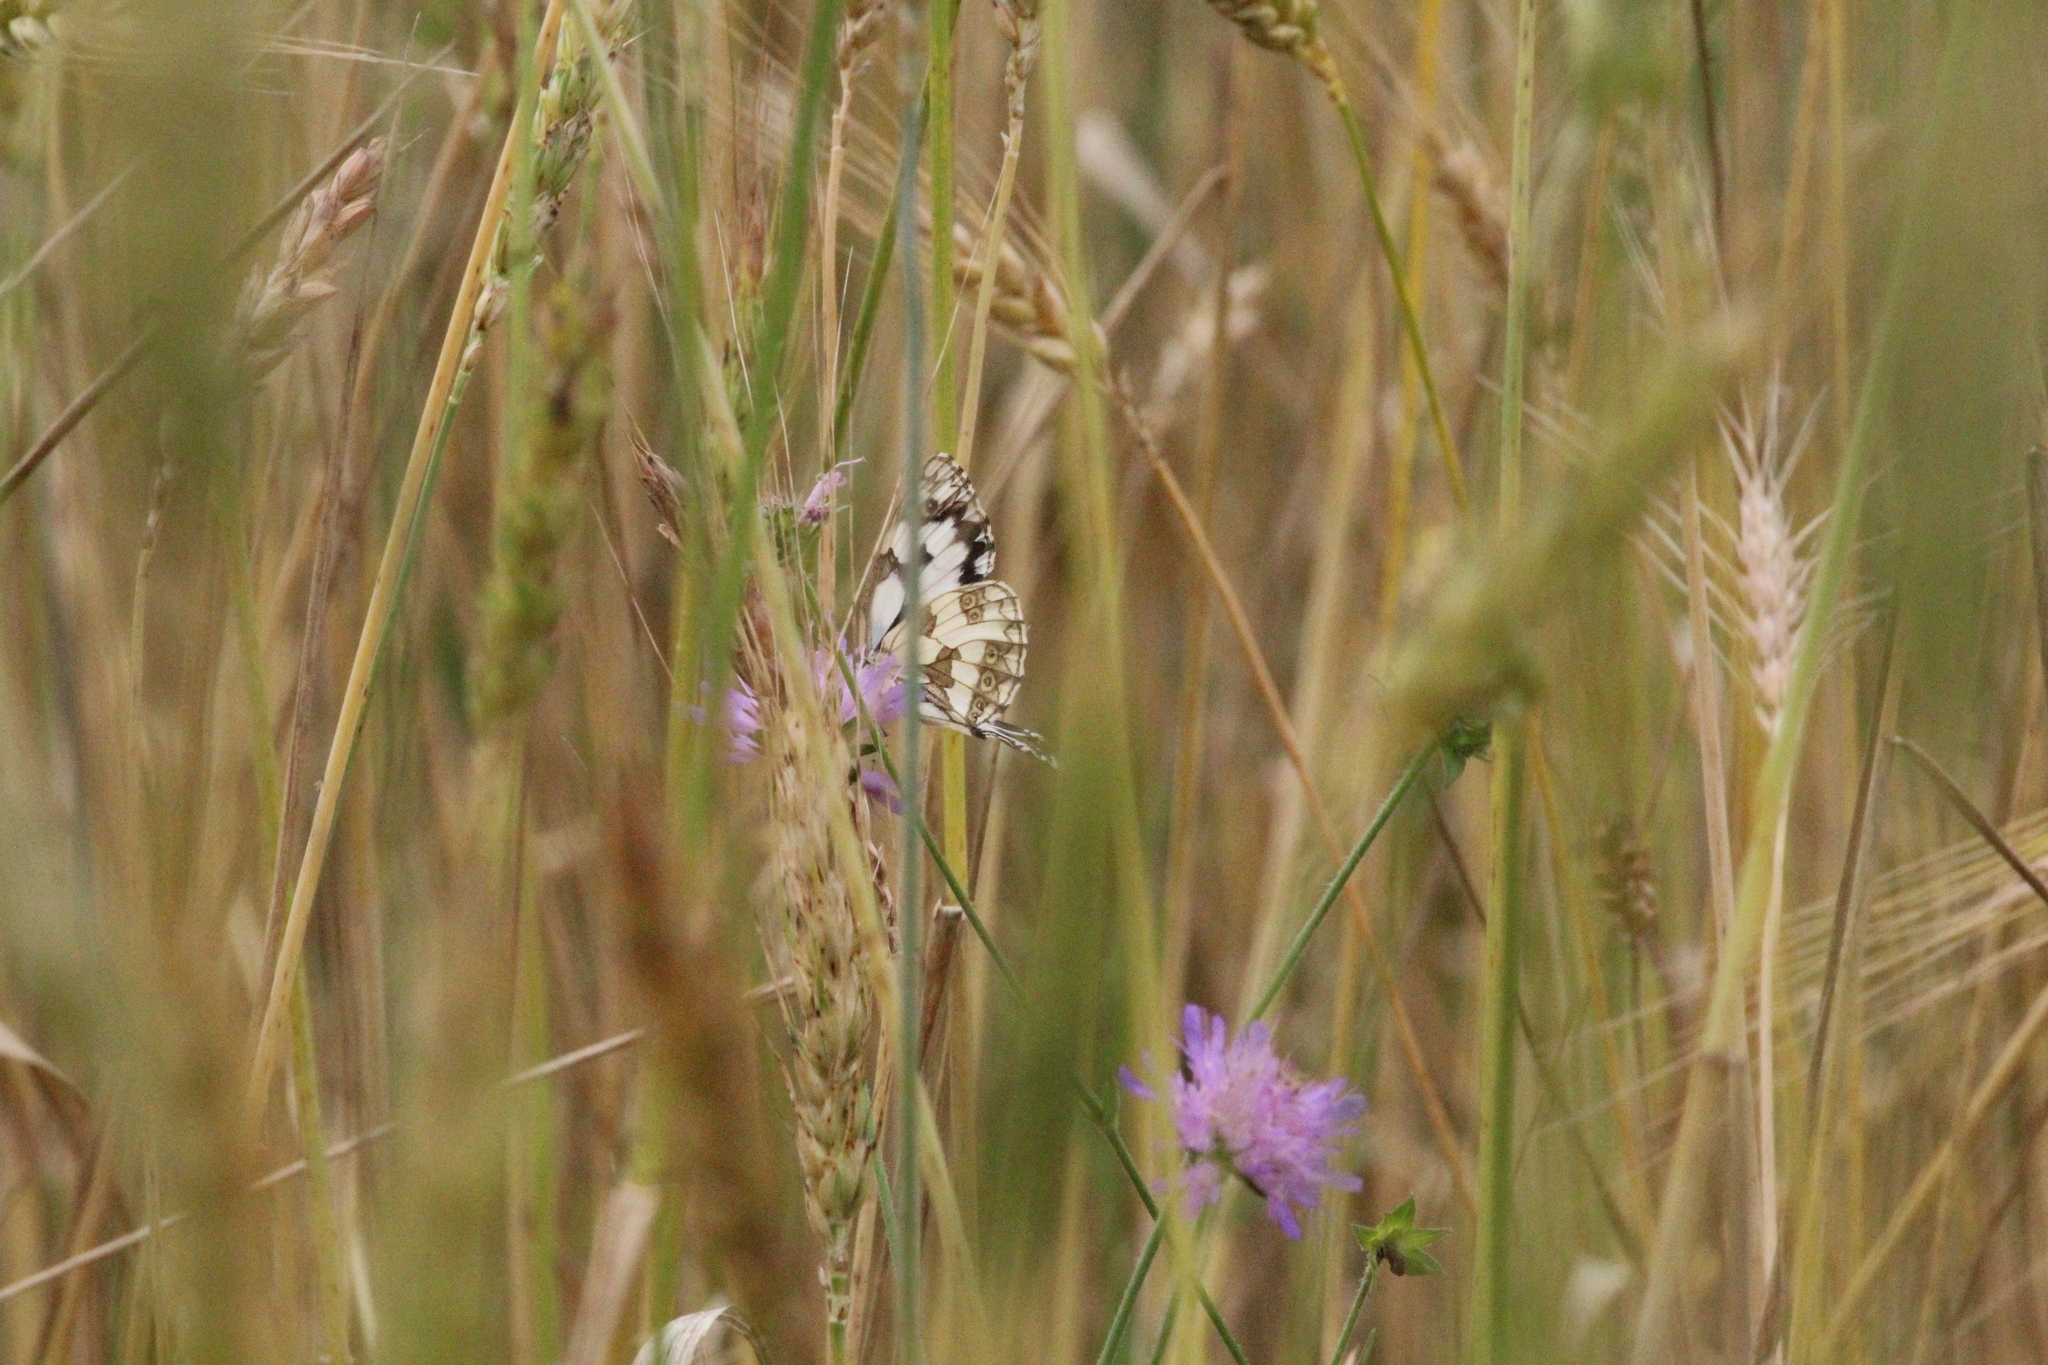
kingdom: Animalia
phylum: Arthropoda
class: Insecta
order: Lepidoptera
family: Nymphalidae
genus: Melanargia
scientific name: Melanargia galathea
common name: Marbled white
